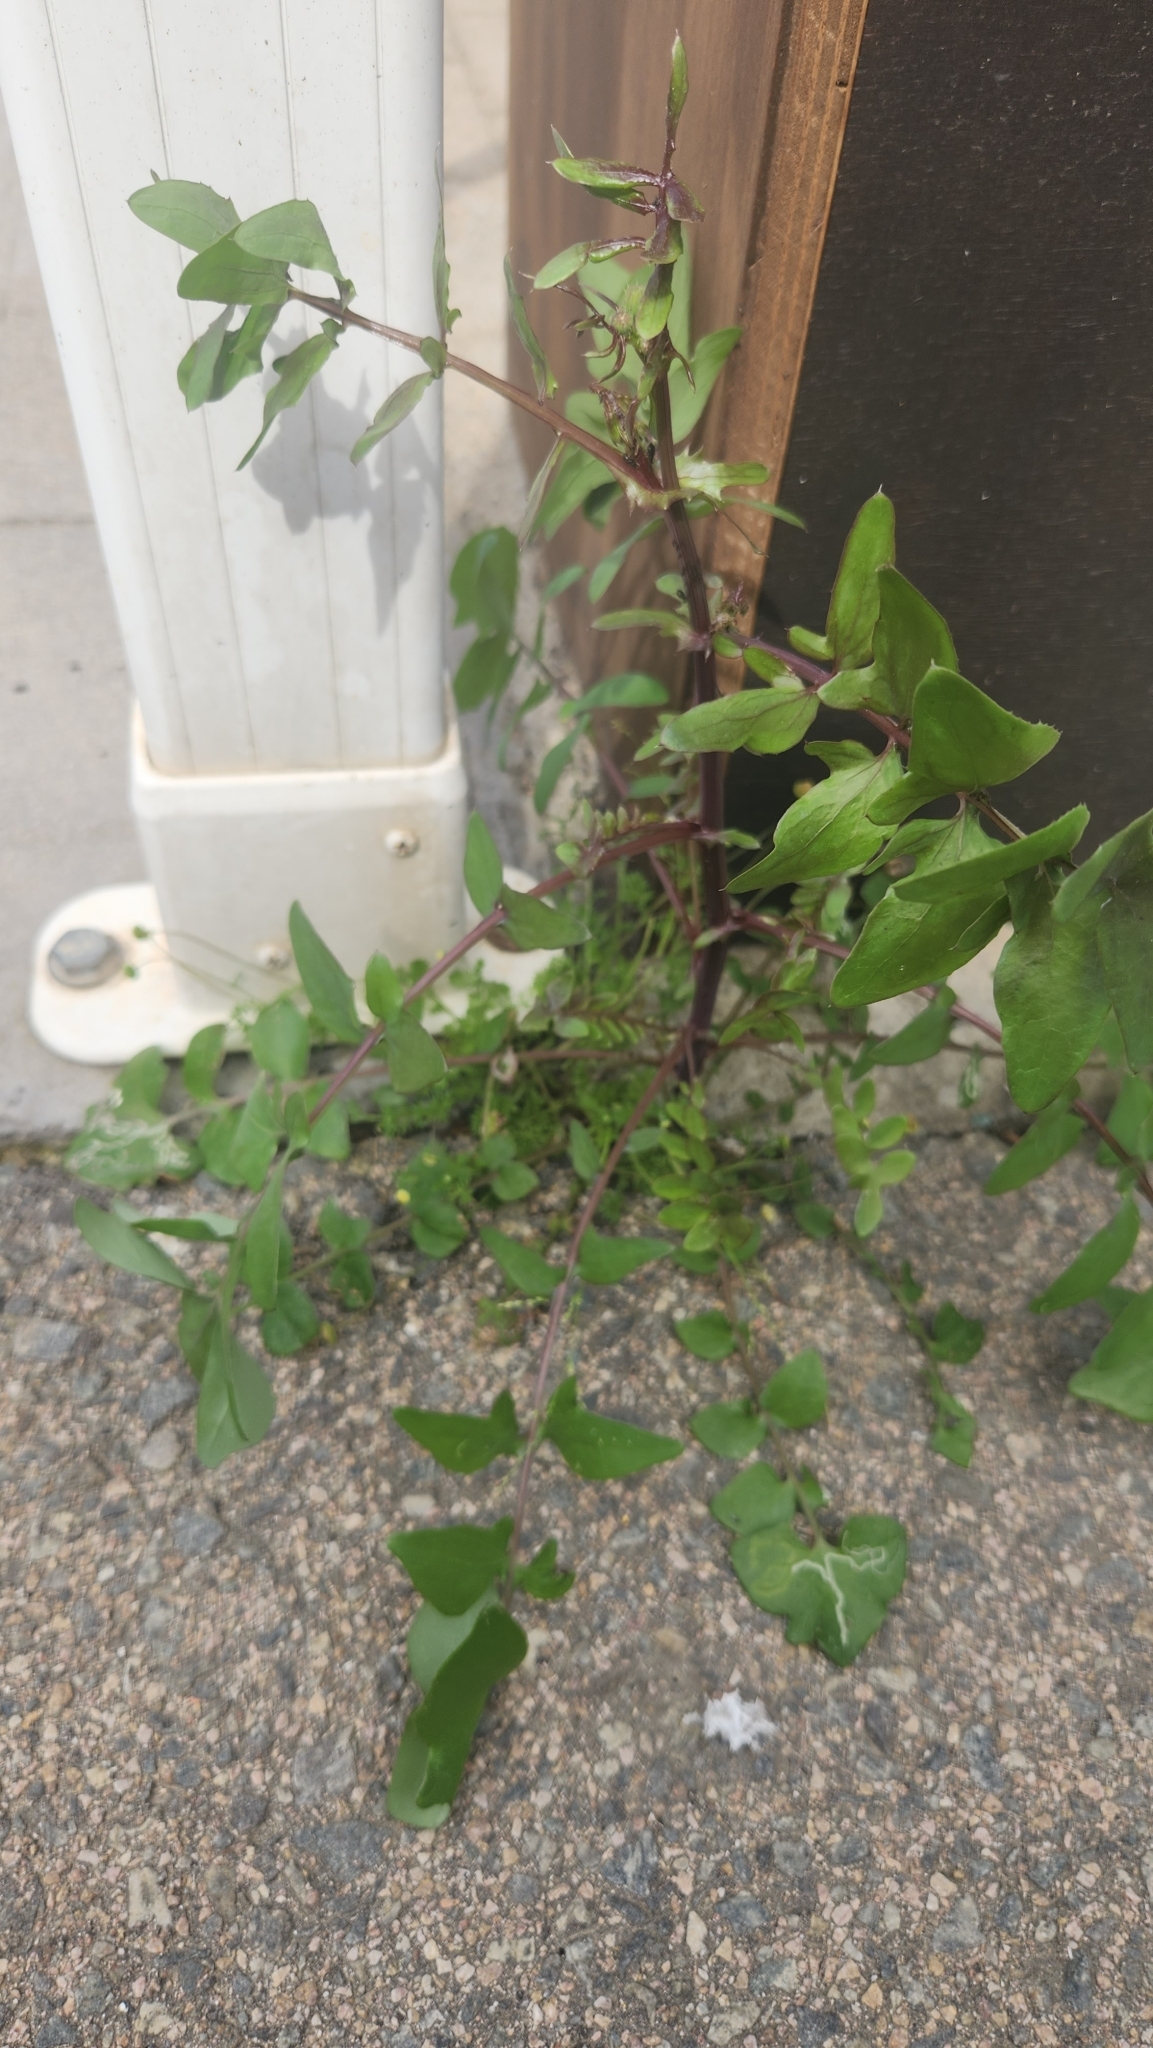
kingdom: Plantae
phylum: Tracheophyta
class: Magnoliopsida
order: Asterales
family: Asteraceae
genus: Sonchus
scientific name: Sonchus tenerrimus
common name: Clammy sowthistle
